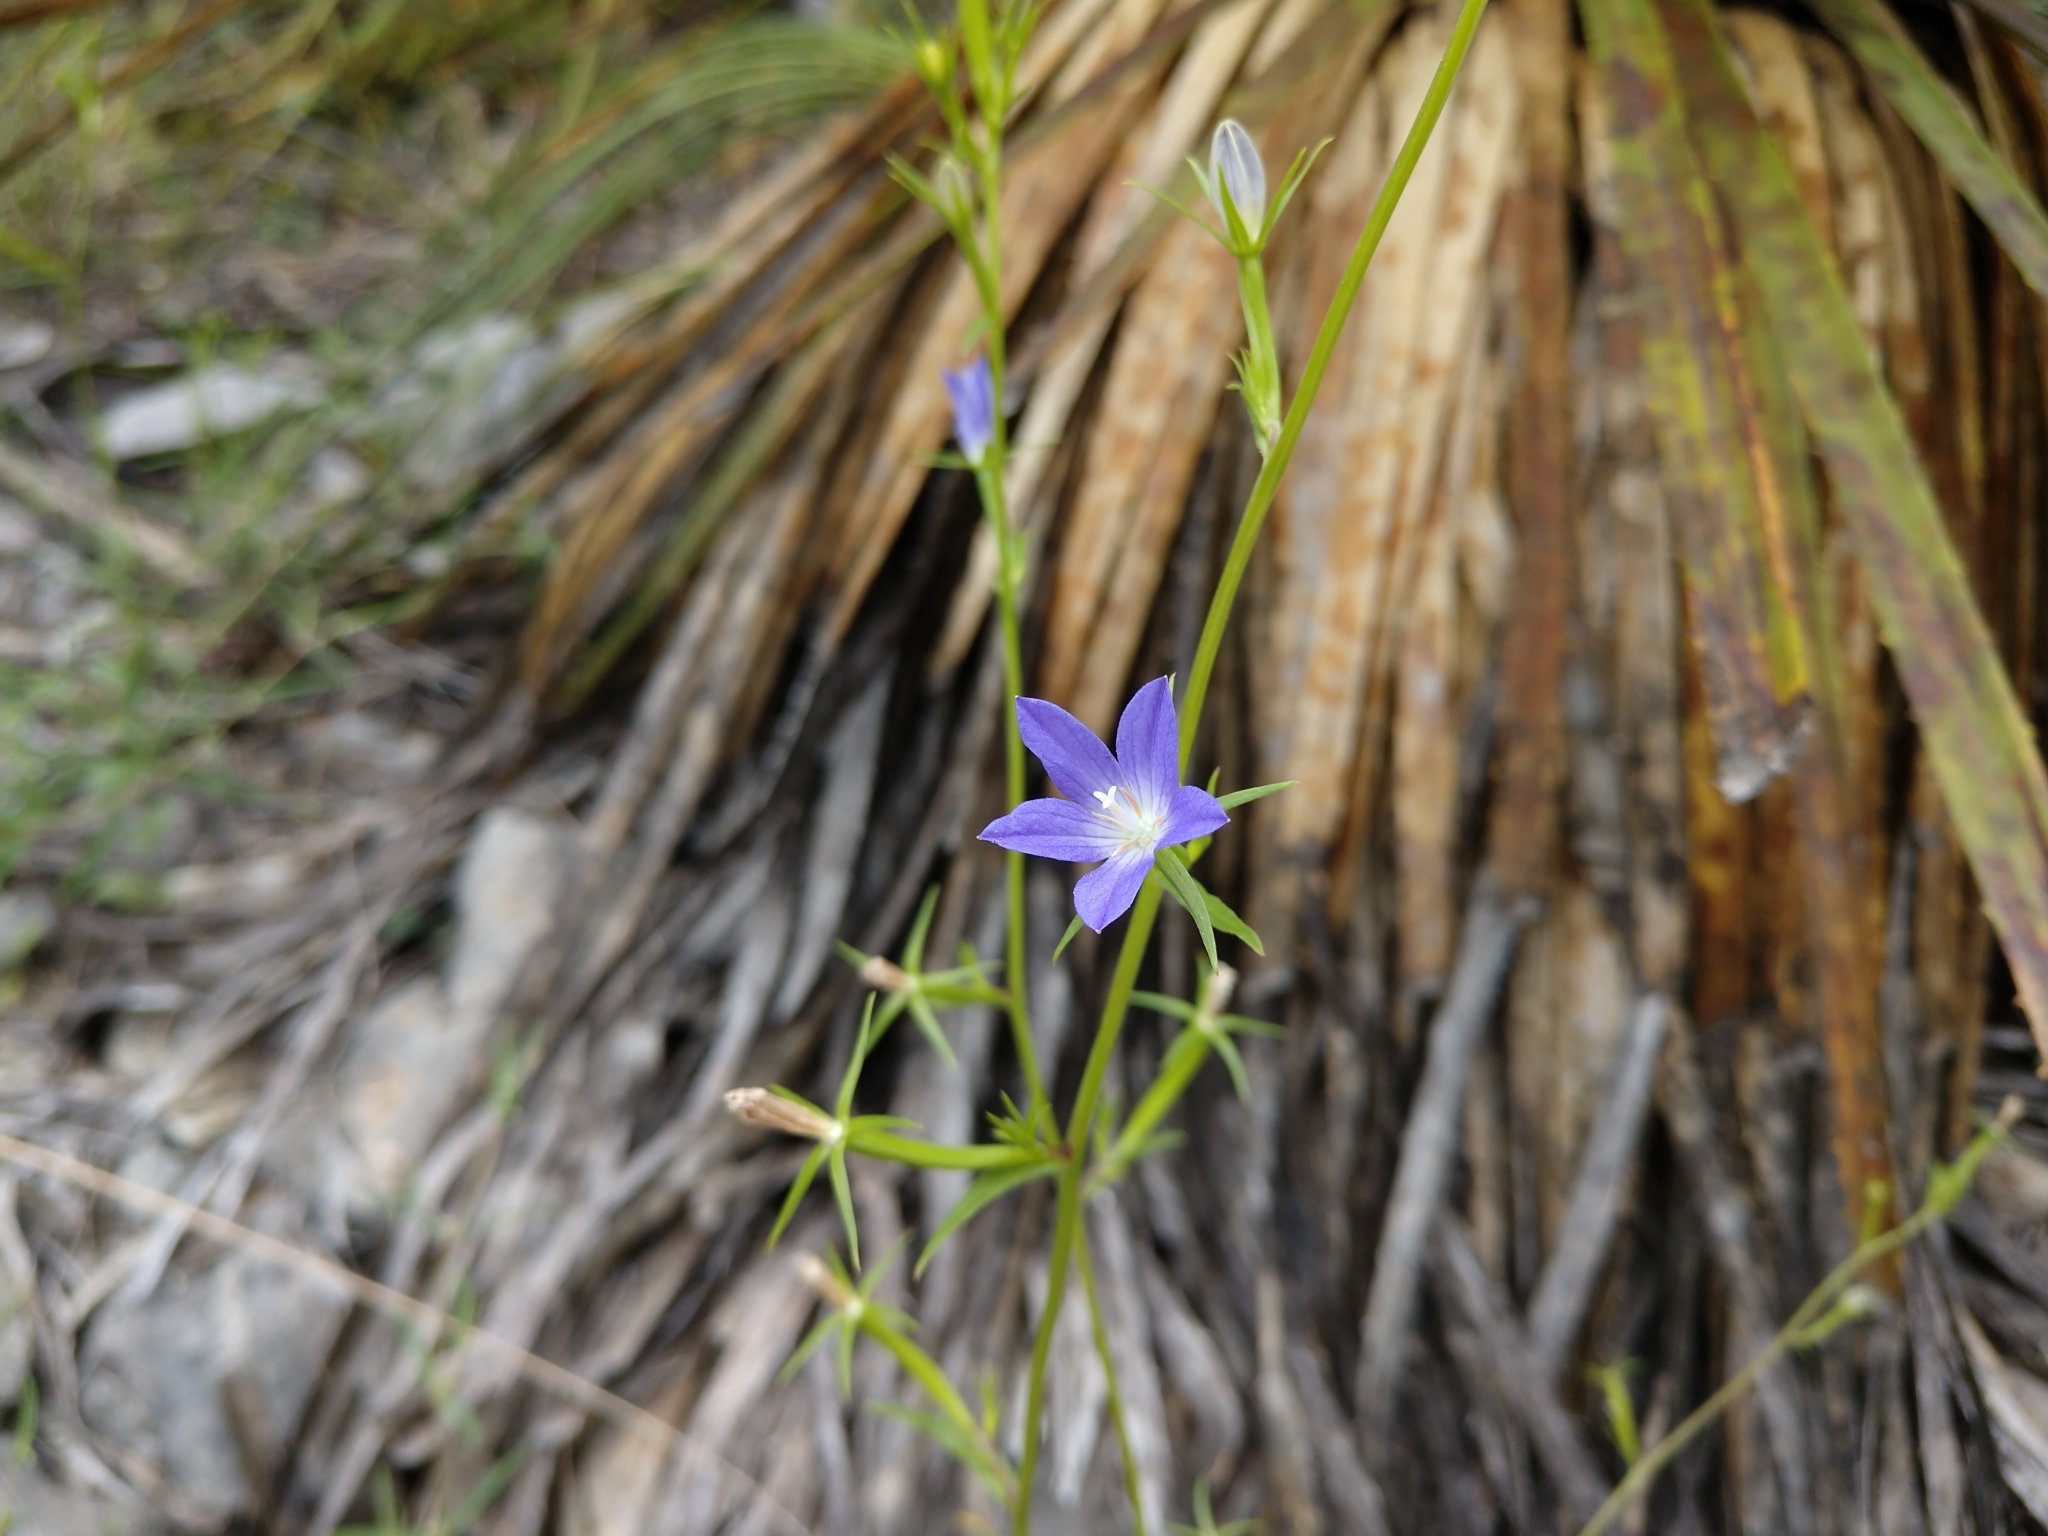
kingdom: Plantae
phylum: Tracheophyta
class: Magnoliopsida
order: Asterales
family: Campanulaceae
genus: Triodanis
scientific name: Triodanis biflora
